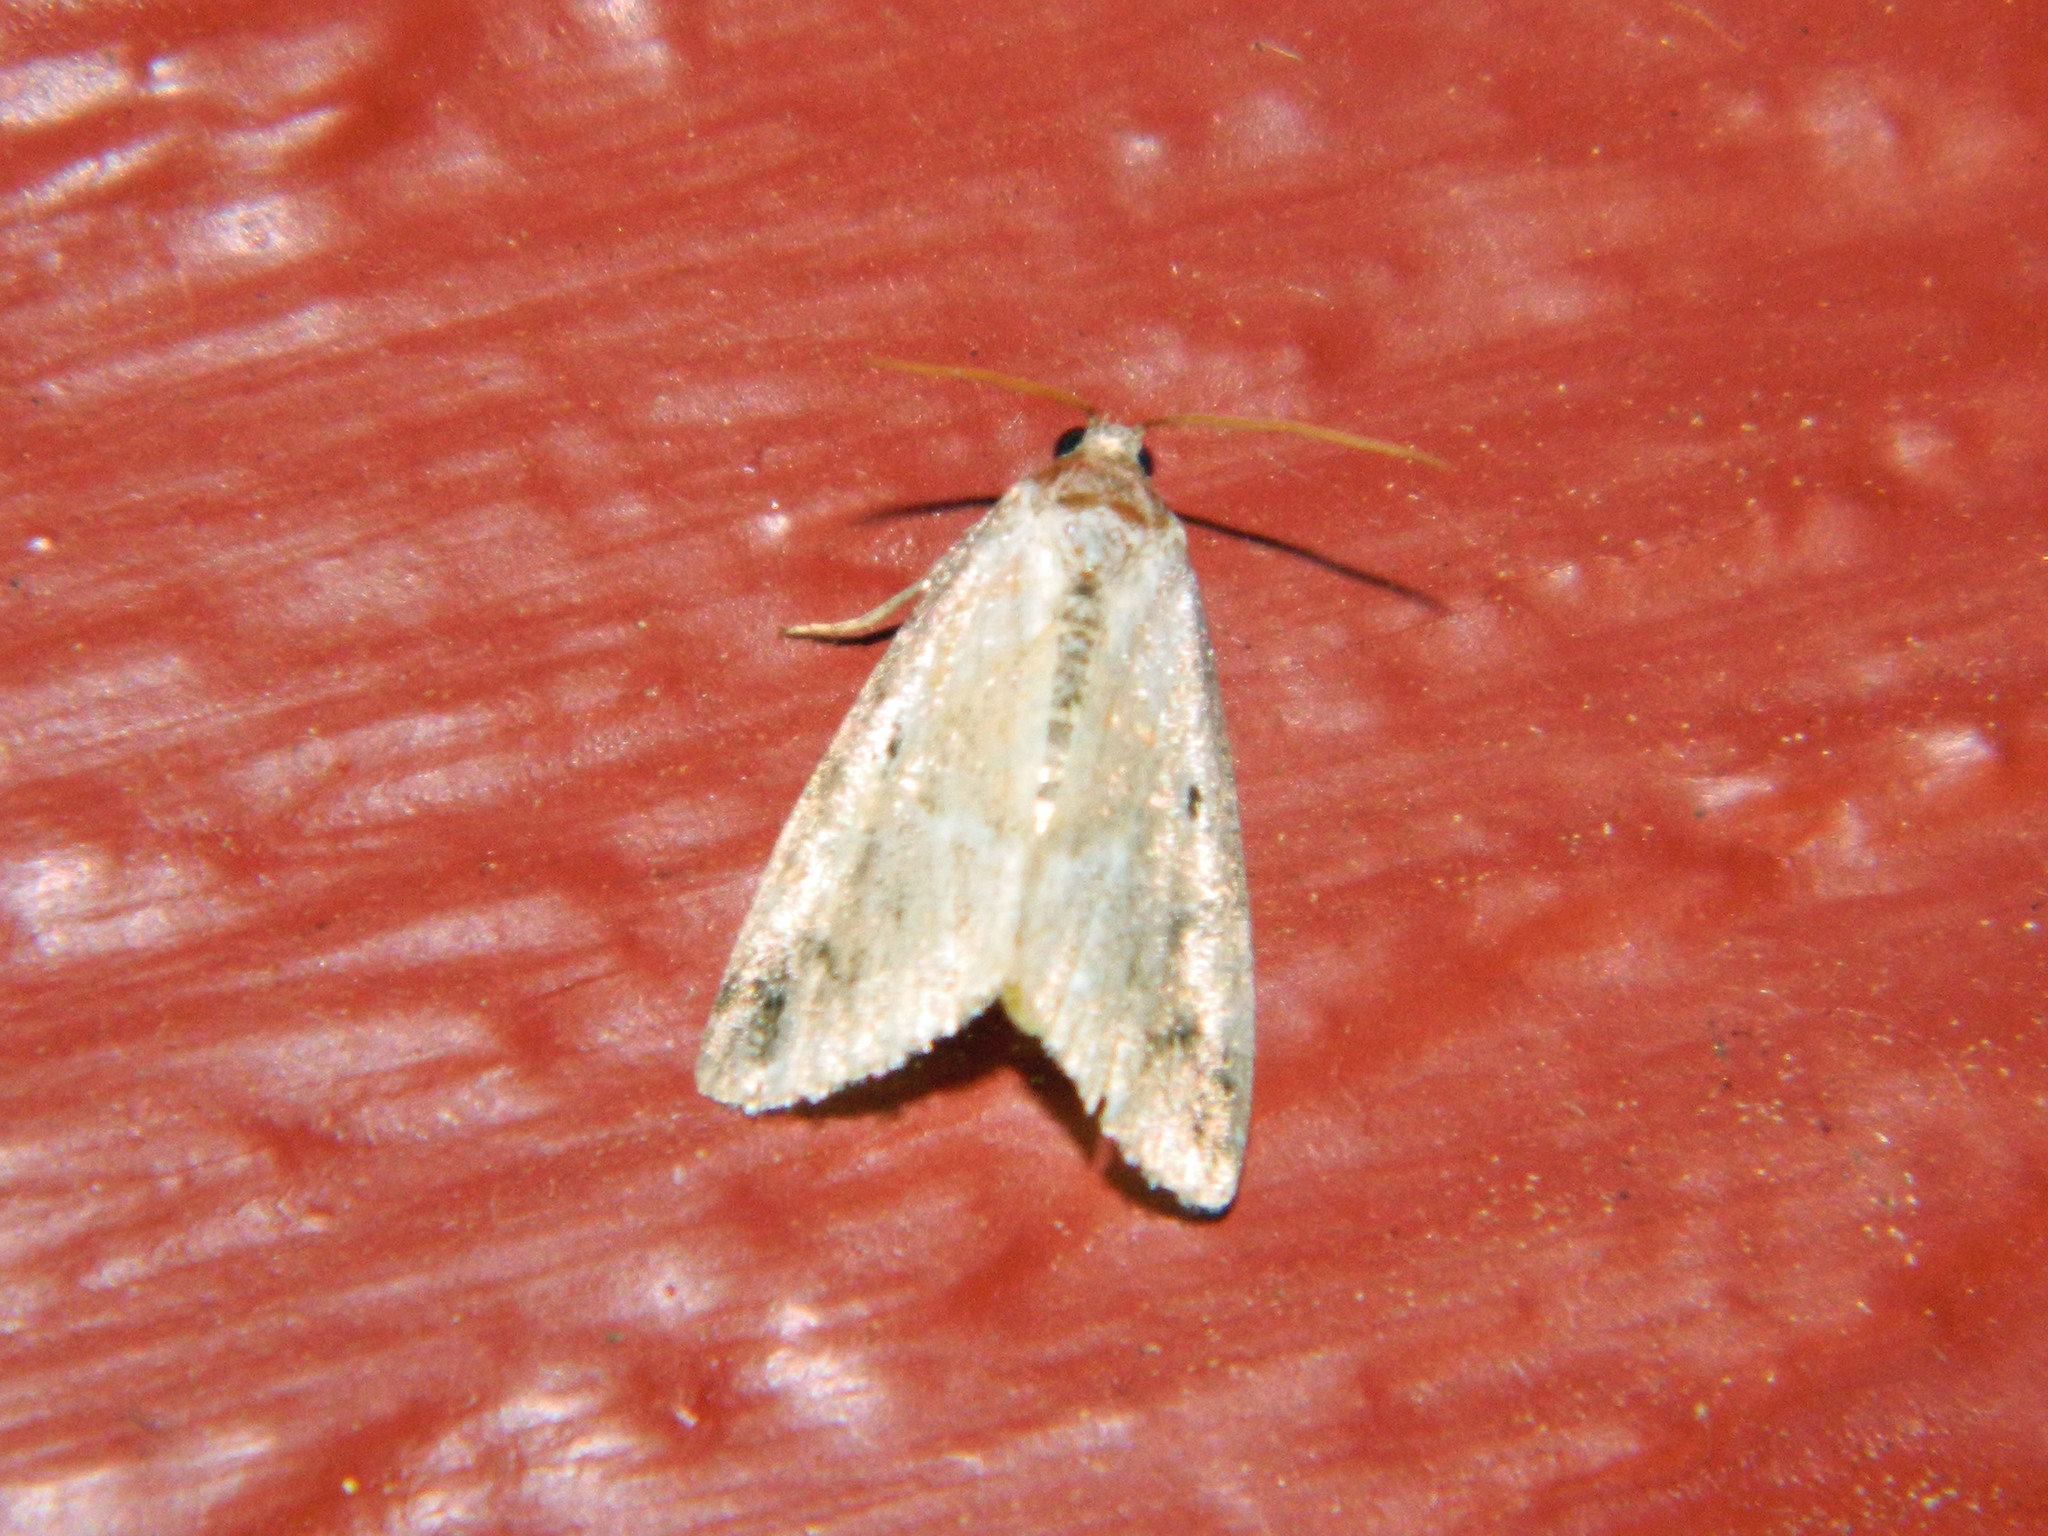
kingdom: Animalia
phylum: Arthropoda
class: Insecta
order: Lepidoptera
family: Noctuidae
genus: Maliattha
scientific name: Maliattha synochitis
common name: Black-dotted glyph
